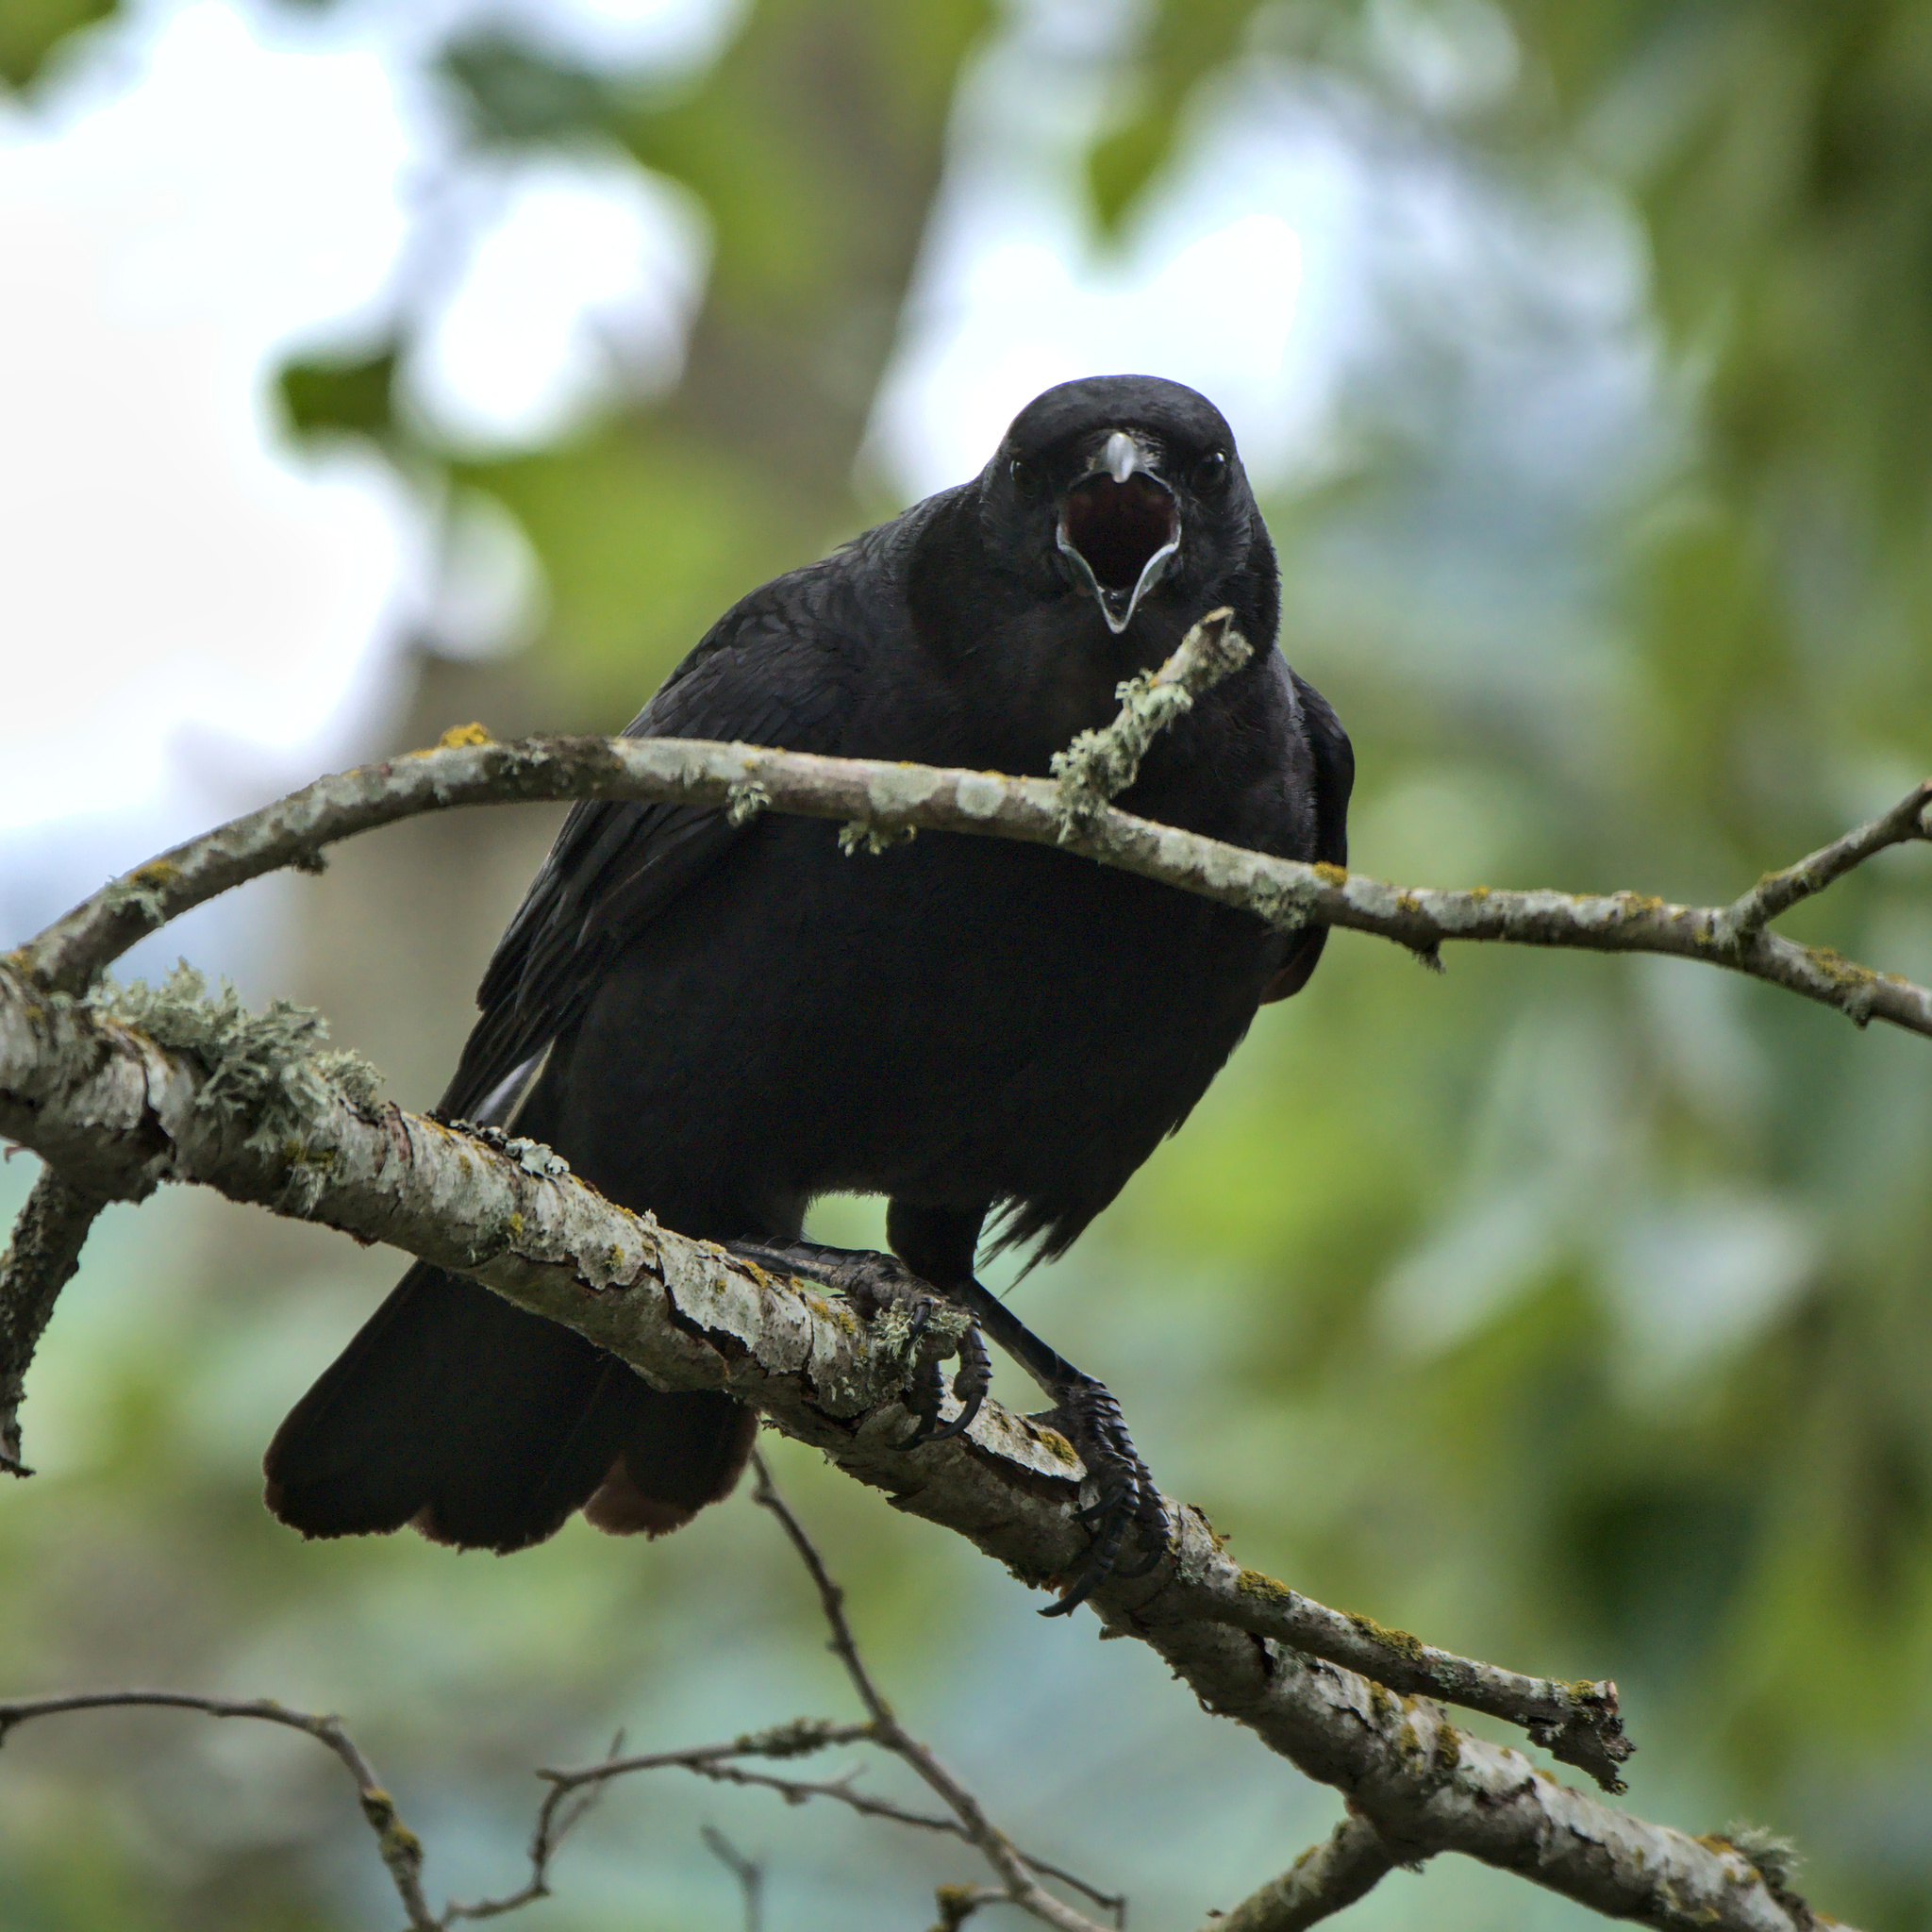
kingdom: Animalia
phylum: Chordata
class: Aves
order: Passeriformes
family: Corvidae
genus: Corvus
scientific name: Corvus brachyrhynchos
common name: American crow
